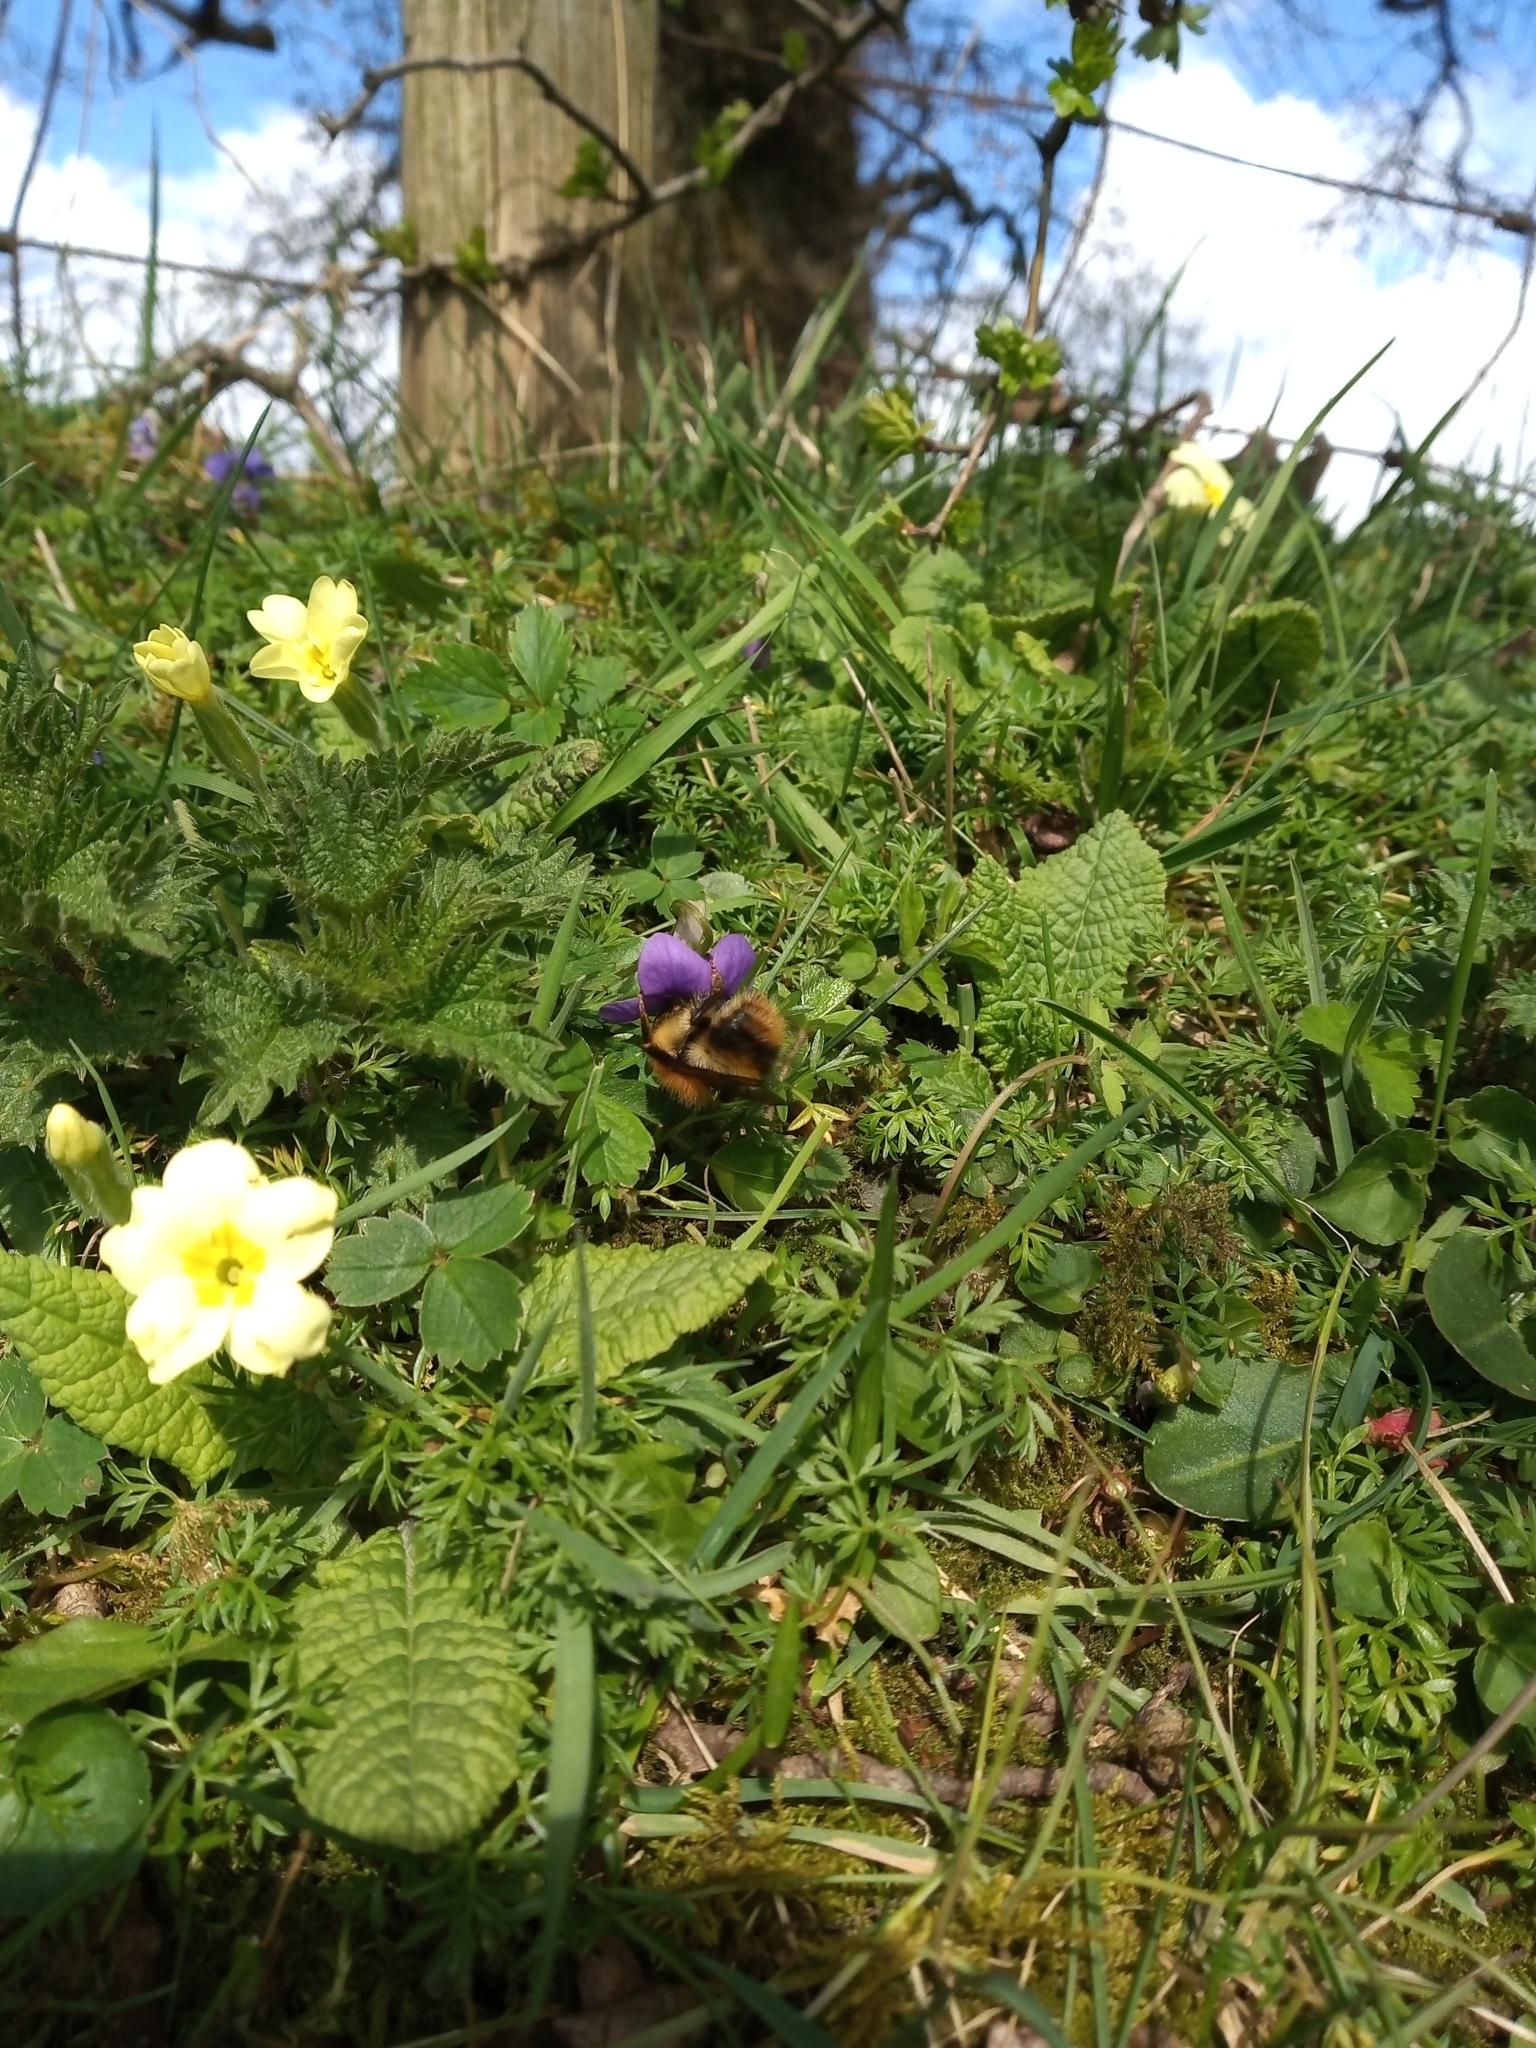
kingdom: Plantae
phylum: Tracheophyta
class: Magnoliopsida
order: Ericales
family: Primulaceae
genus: Primula
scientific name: Primula vulgaris
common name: Primrose
